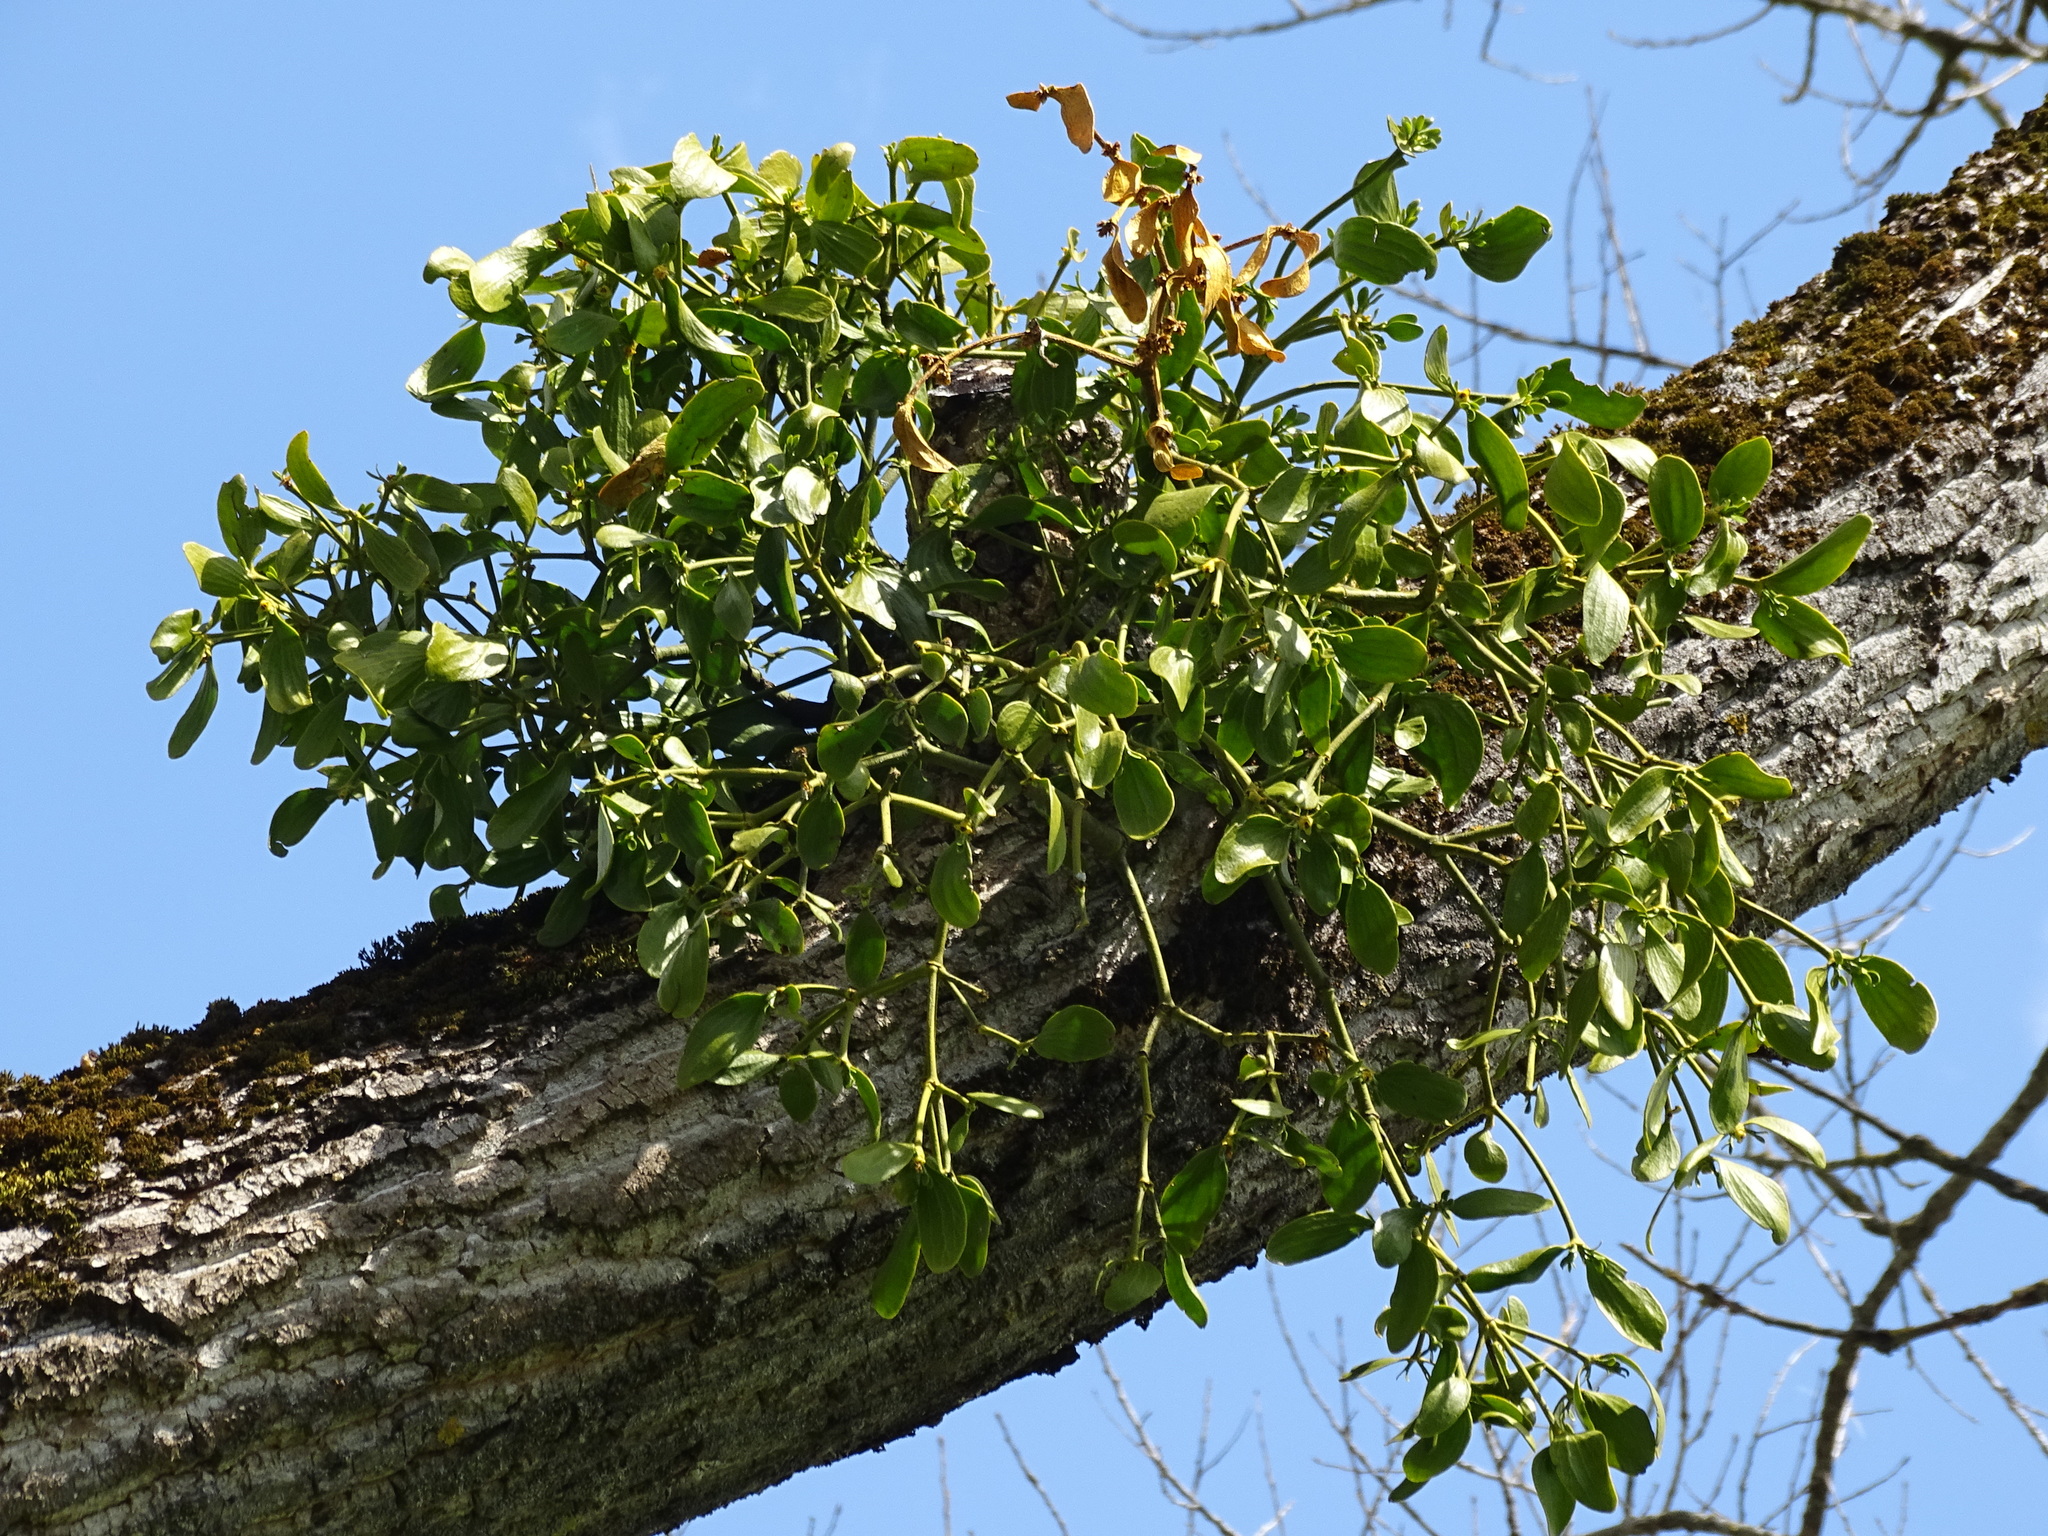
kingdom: Plantae
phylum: Tracheophyta
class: Magnoliopsida
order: Santalales
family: Viscaceae
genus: Viscum
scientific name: Viscum album
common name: Mistletoe
